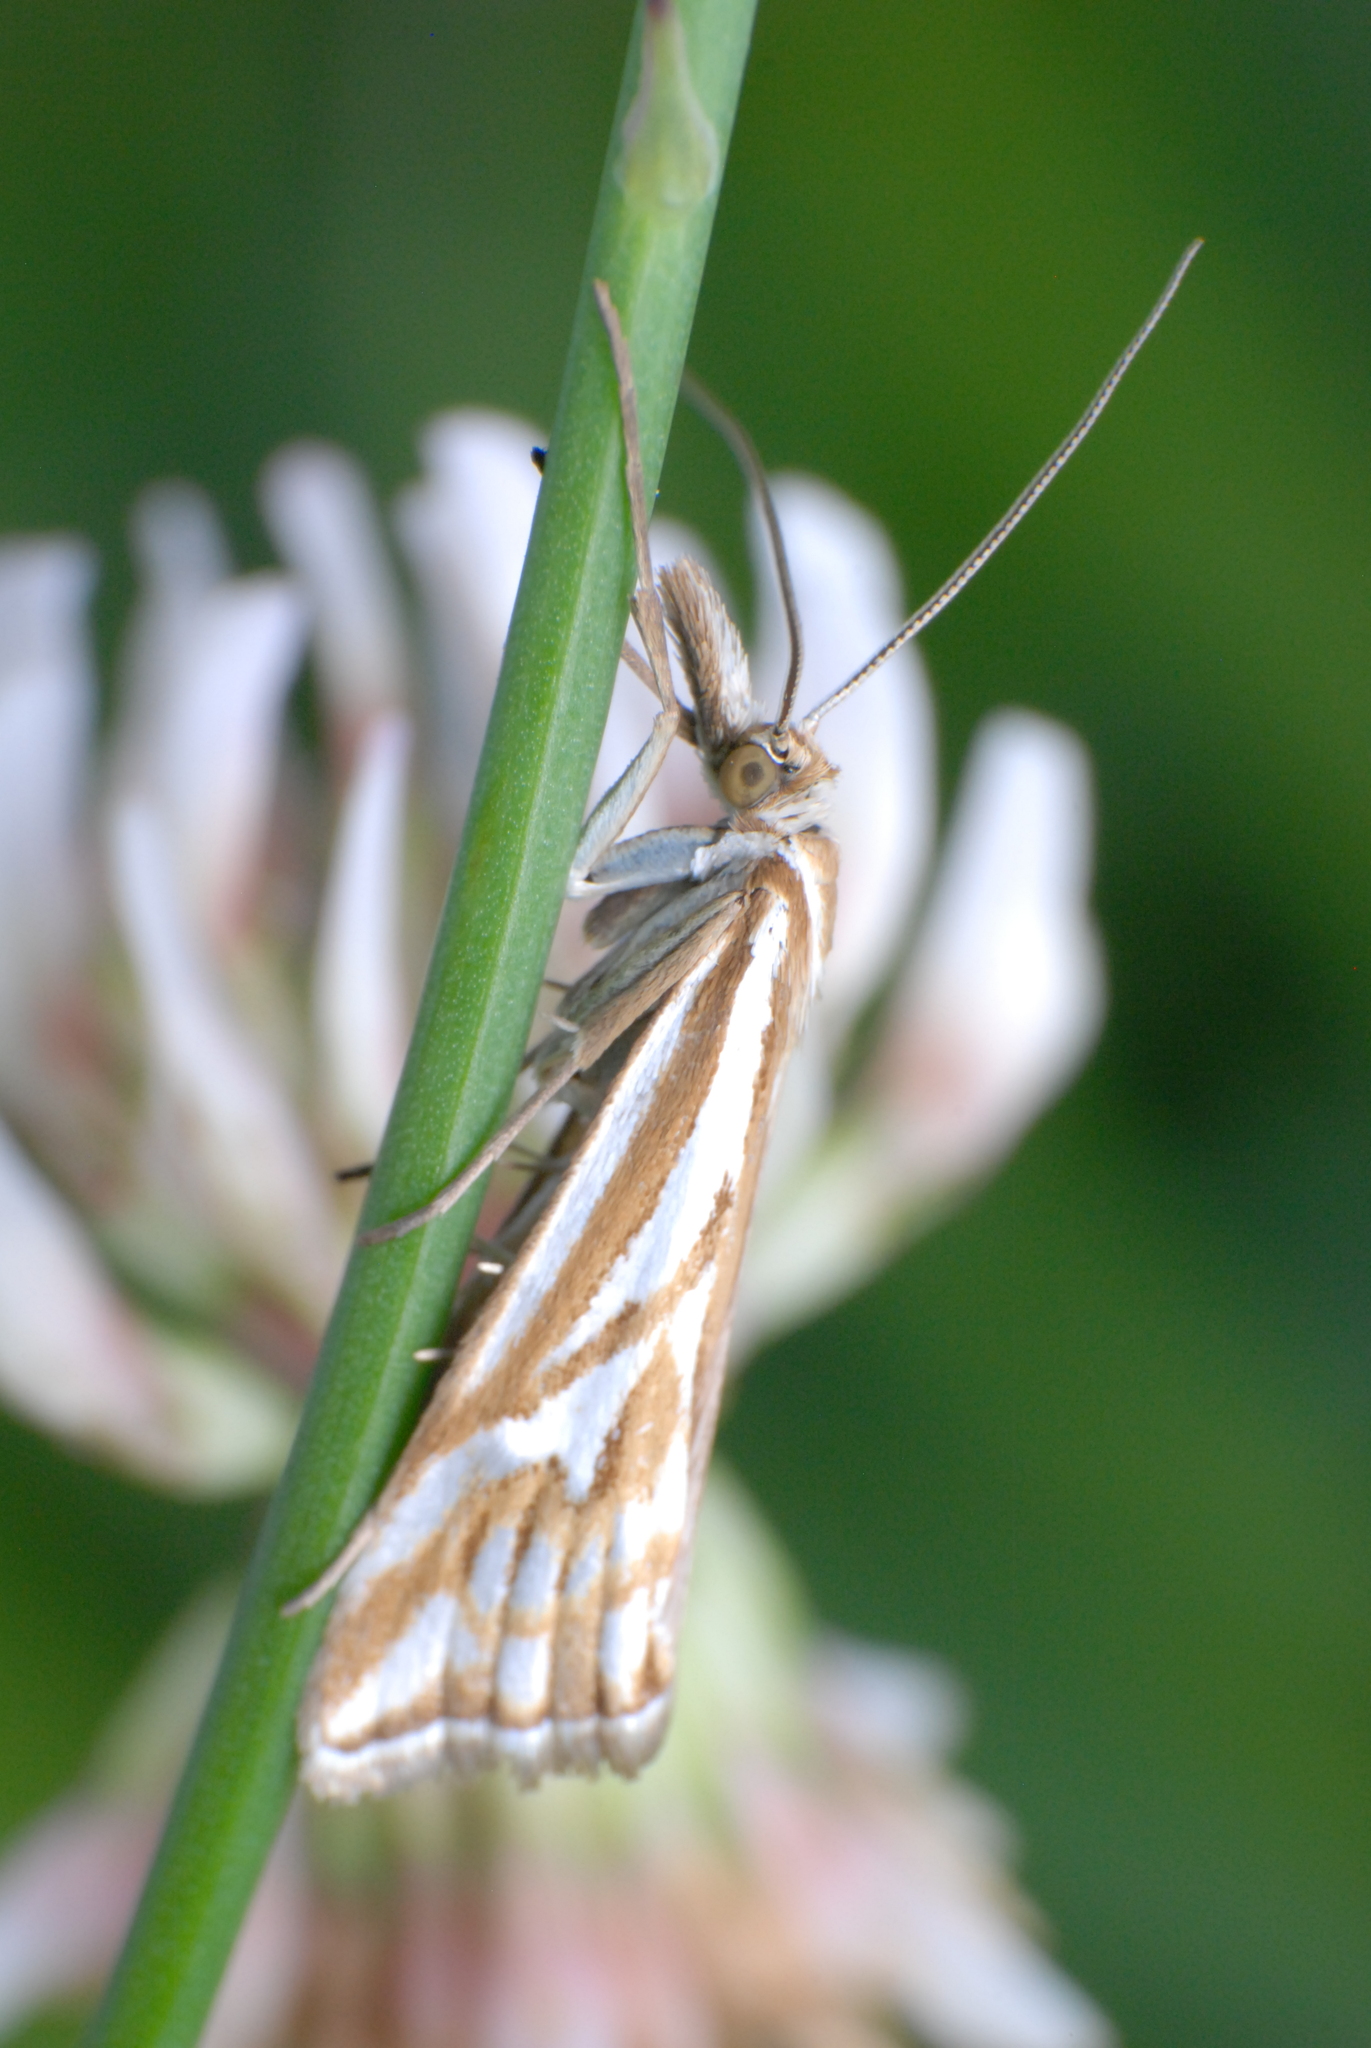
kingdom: Animalia
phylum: Arthropoda
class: Insecta
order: Lepidoptera
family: Crambidae
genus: Hednota
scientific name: Hednota pleniferellus
